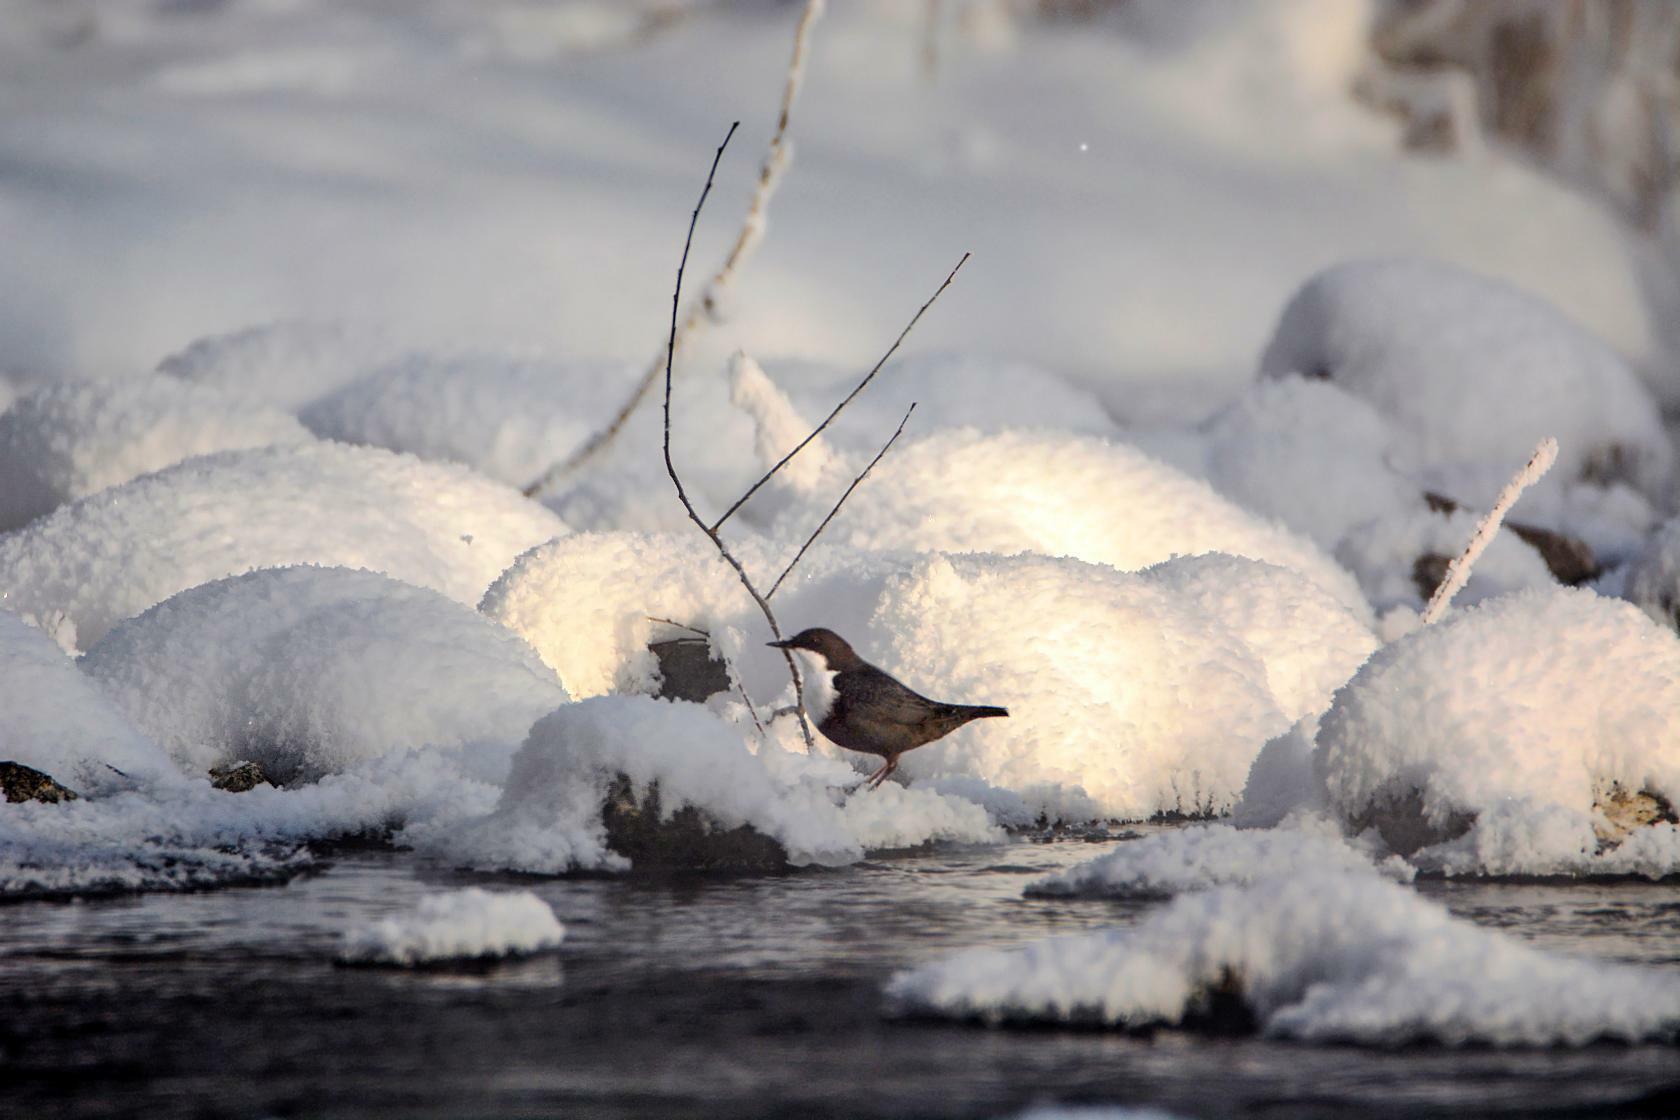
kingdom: Animalia
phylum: Chordata
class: Aves
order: Passeriformes
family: Cinclidae
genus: Cinclus
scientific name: Cinclus cinclus
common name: White-throated dipper
